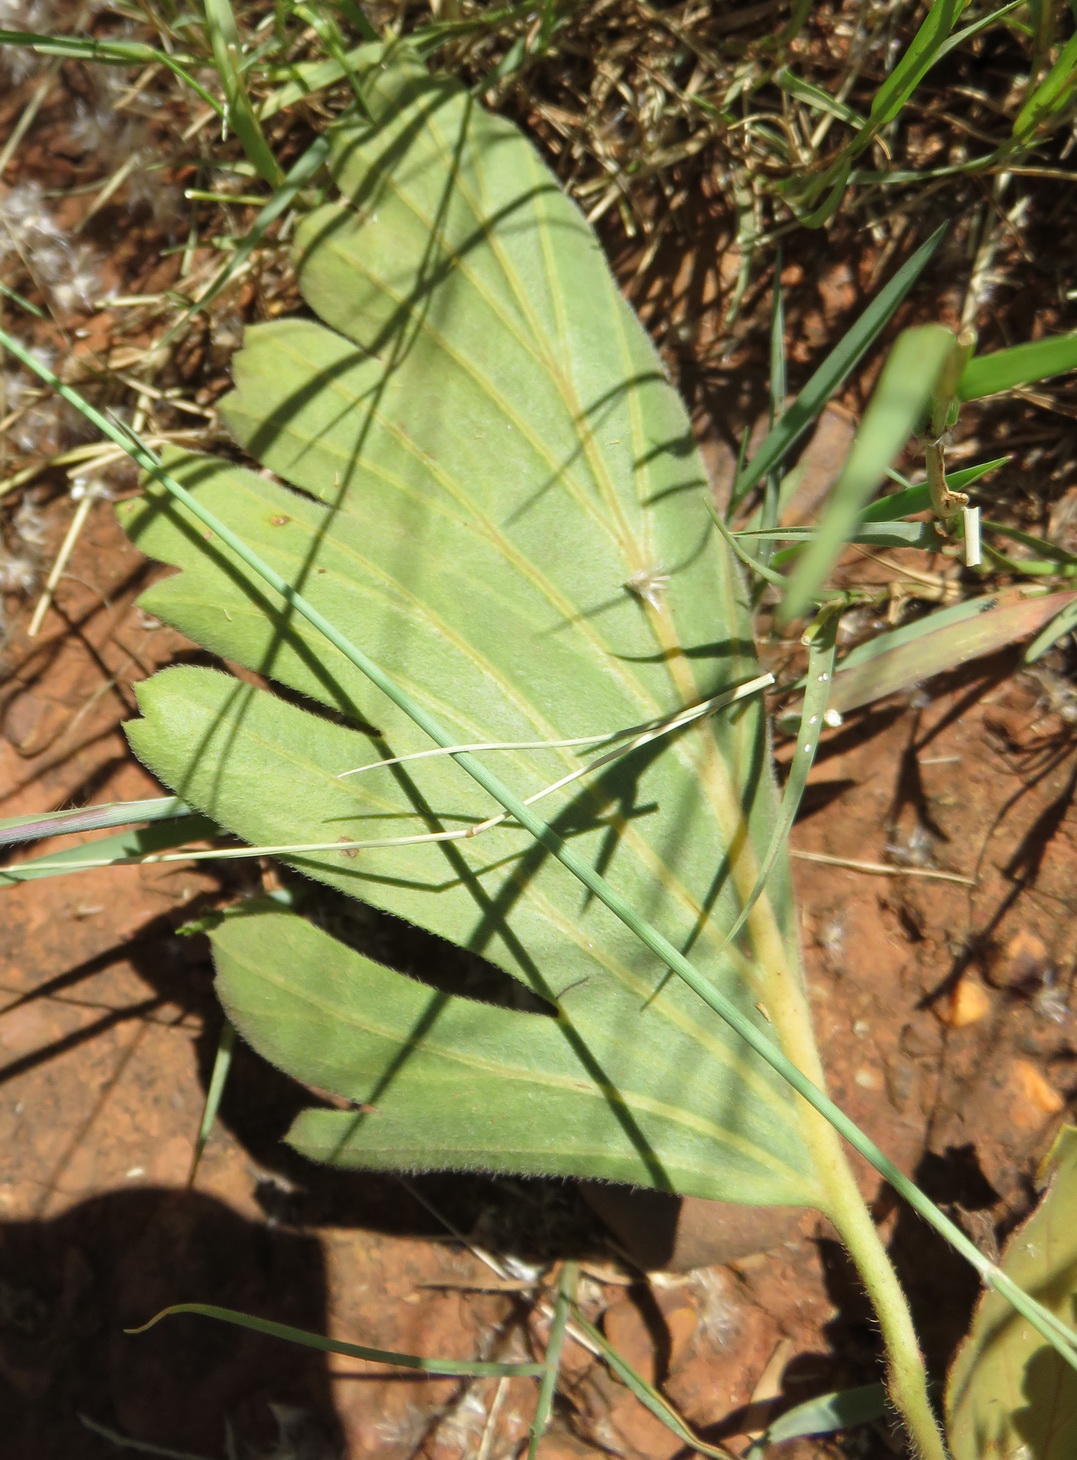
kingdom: Plantae
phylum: Tracheophyta
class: Magnoliopsida
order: Geraniales
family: Geraniaceae
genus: Pelargonium
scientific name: Pelargonium luridum
